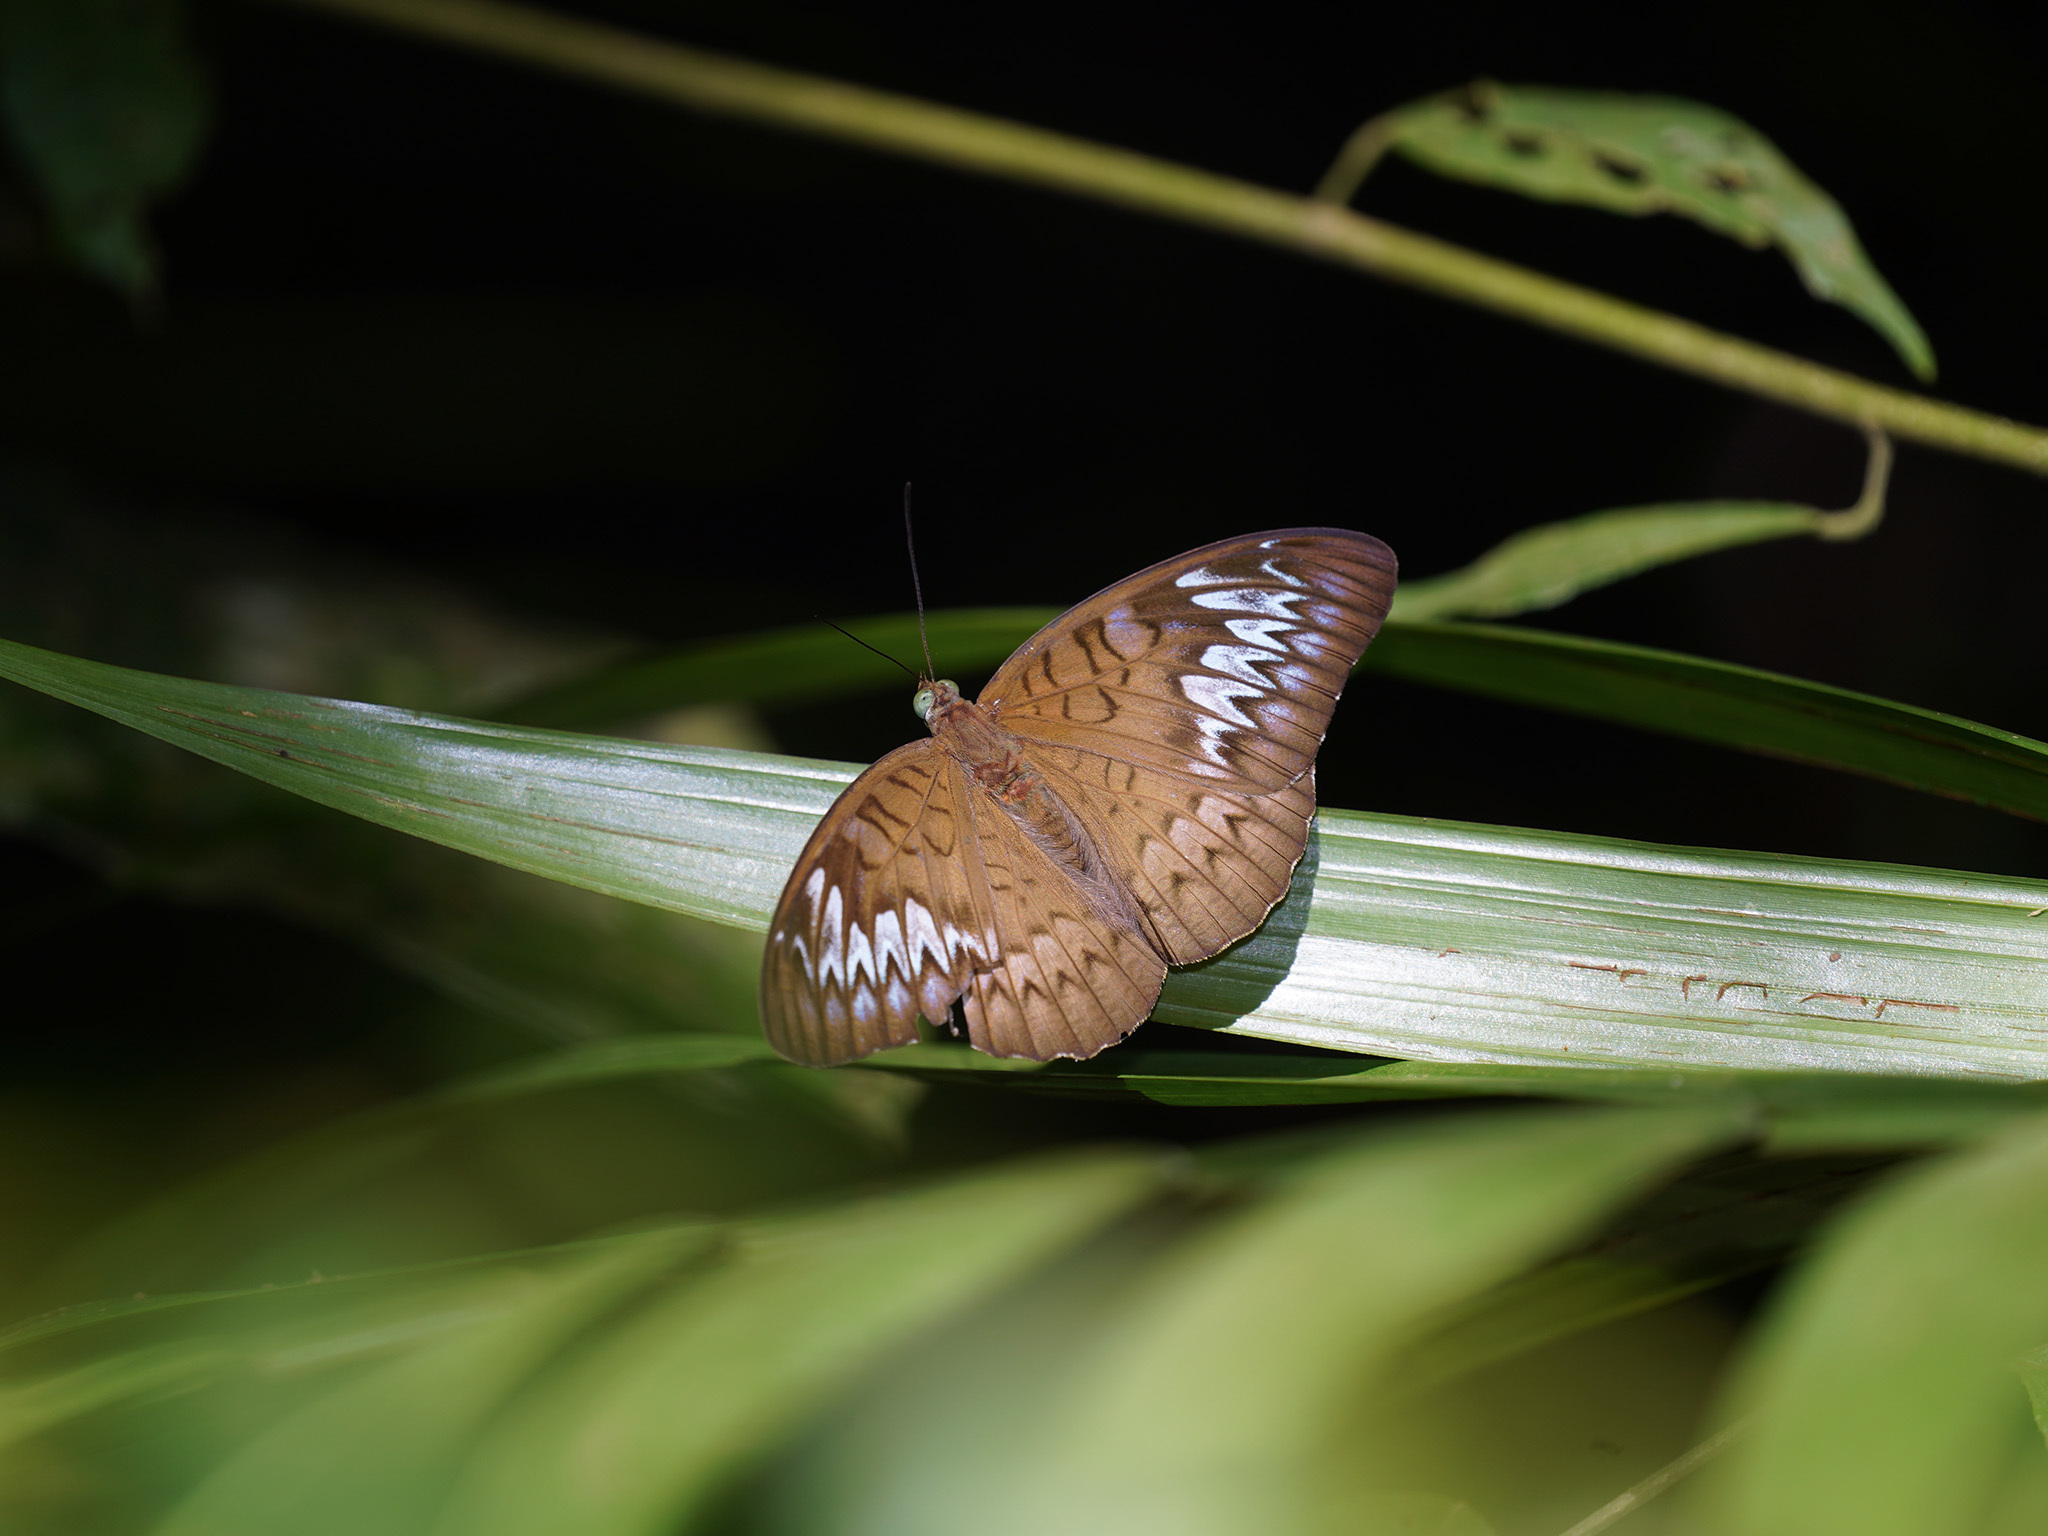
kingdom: Animalia
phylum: Arthropoda
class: Insecta
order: Lepidoptera
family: Nymphalidae
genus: Tanaecia
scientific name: Tanaecia pelea
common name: Malay viscount
